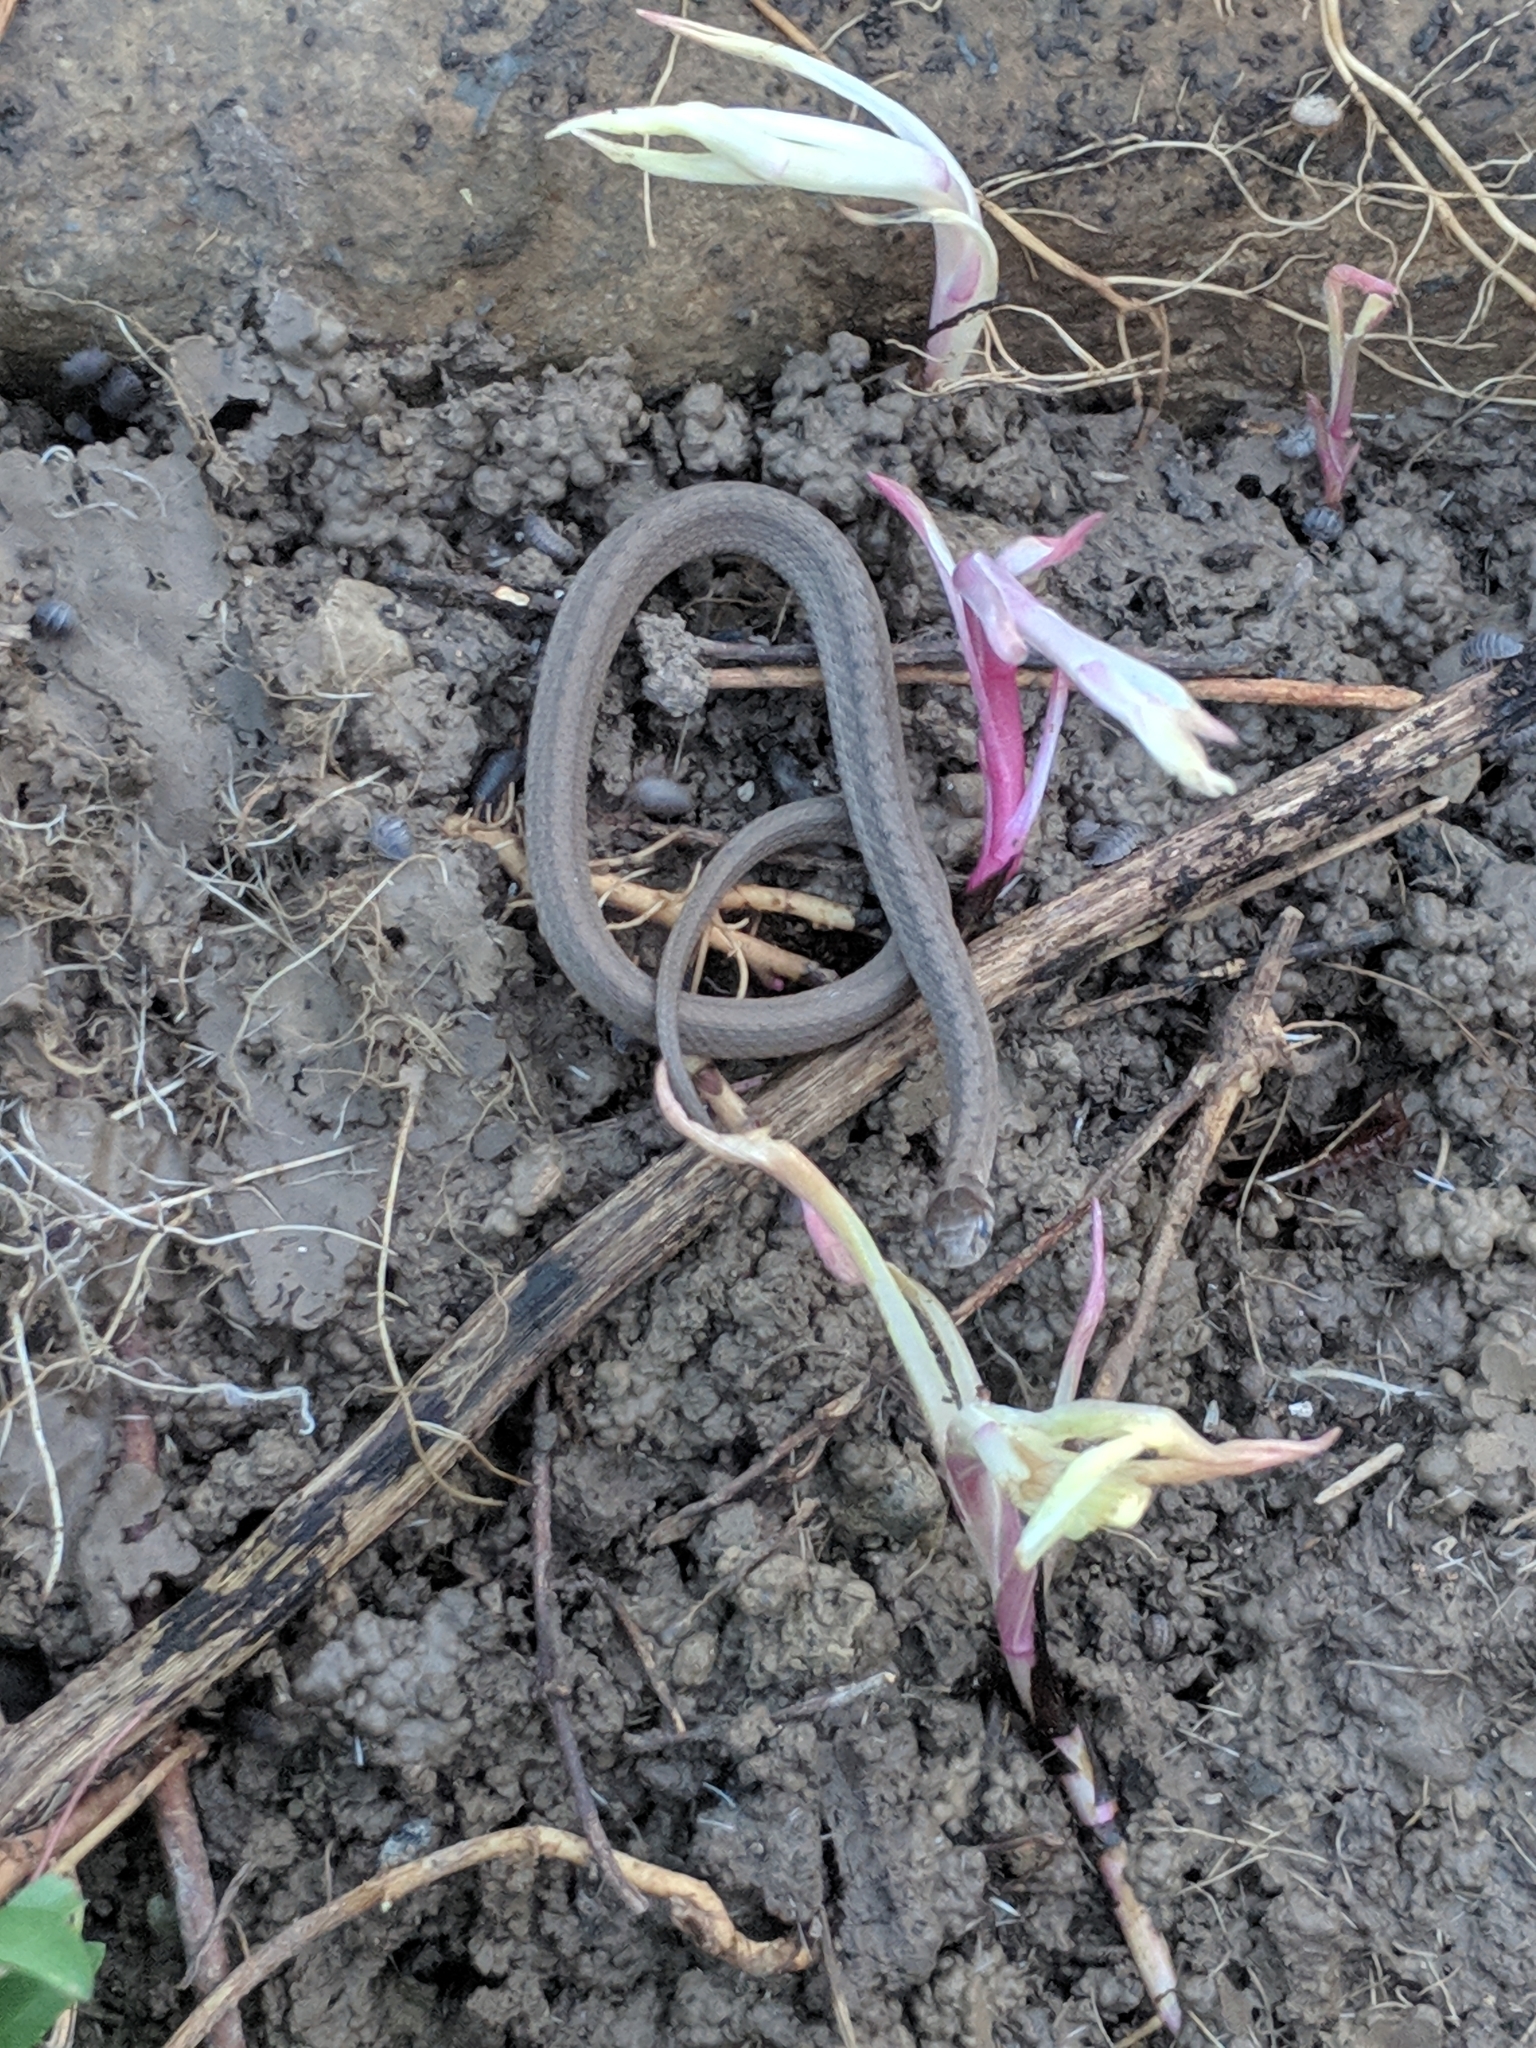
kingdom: Animalia
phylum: Chordata
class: Squamata
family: Colubridae
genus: Storeria
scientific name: Storeria dekayi
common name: (dekay’s) brown snake
